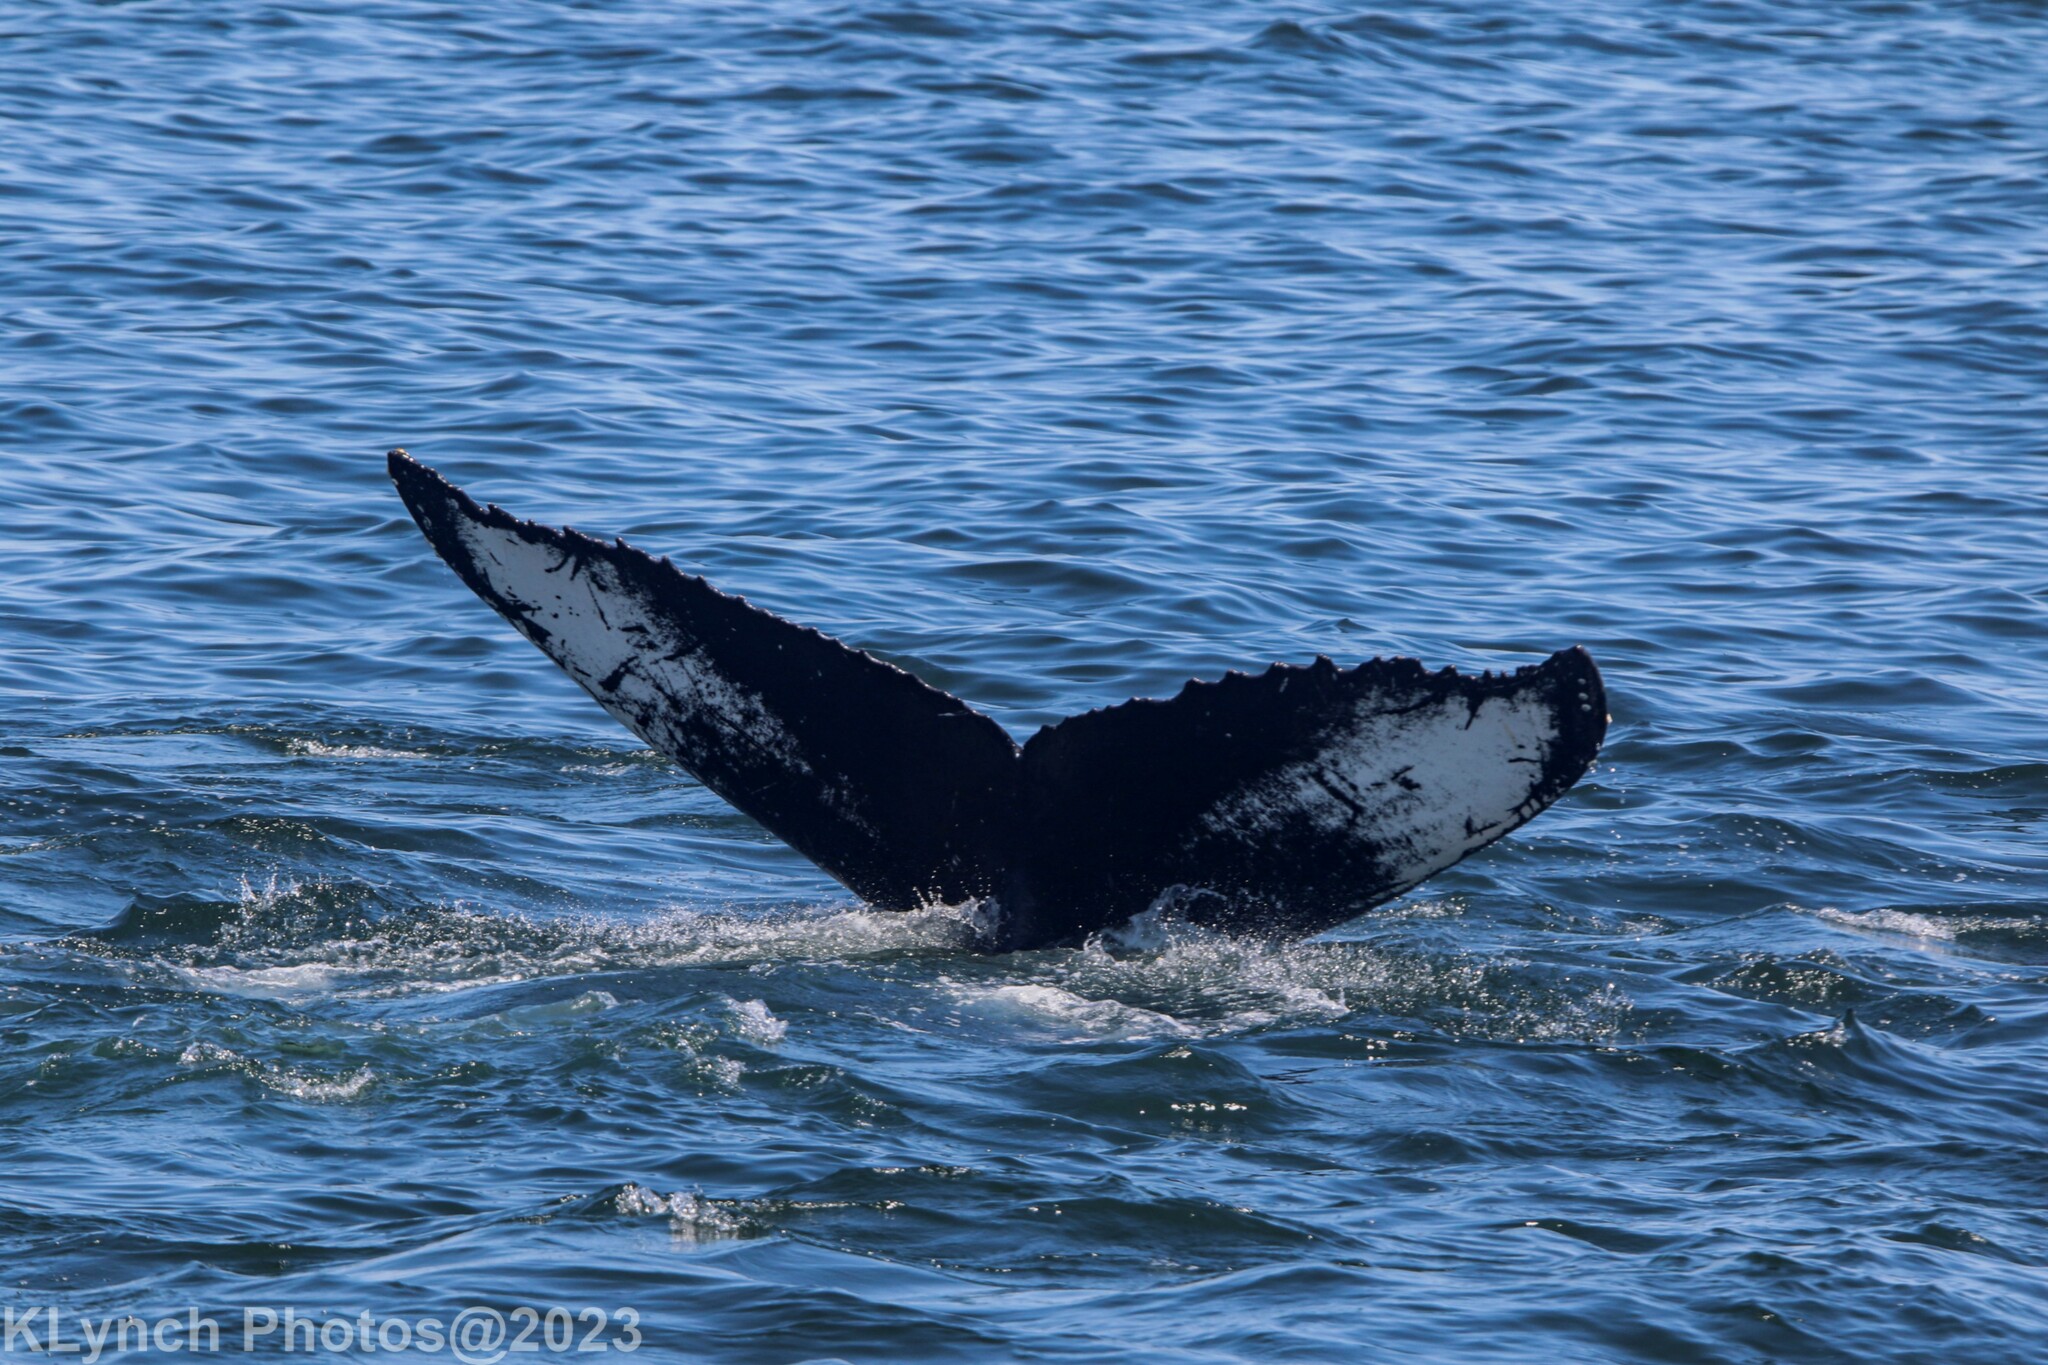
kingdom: Animalia
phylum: Chordata
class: Mammalia
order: Cetacea
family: Balaenopteridae
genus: Megaptera
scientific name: Megaptera novaeangliae
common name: Humpback whale
